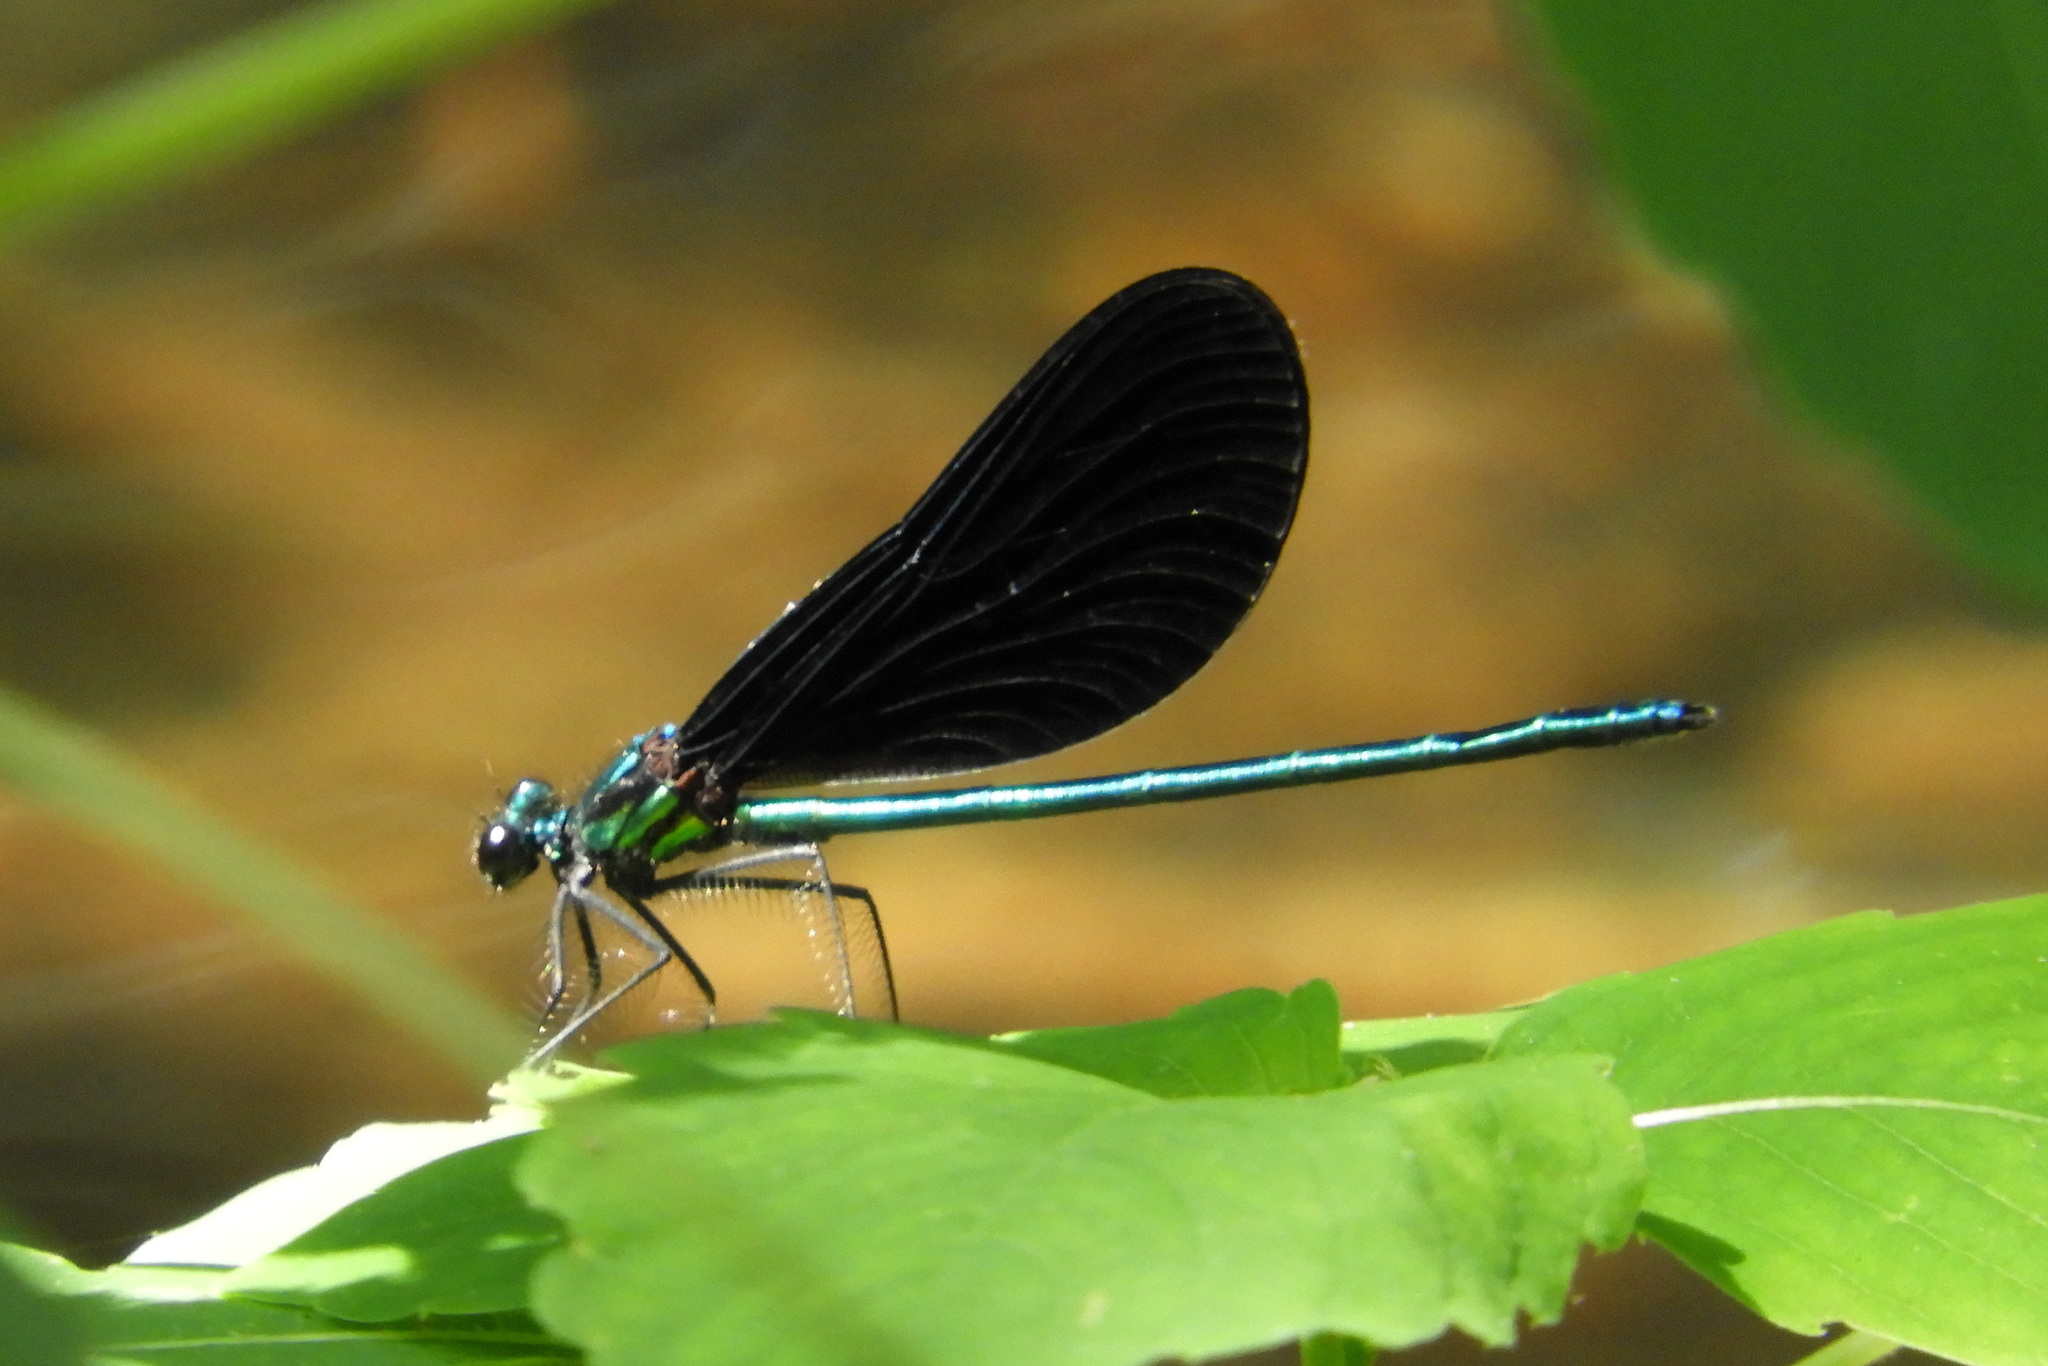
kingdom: Animalia
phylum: Arthropoda
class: Insecta
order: Odonata
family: Calopterygidae
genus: Calopteryx
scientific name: Calopteryx maculata
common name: Ebony jewelwing
